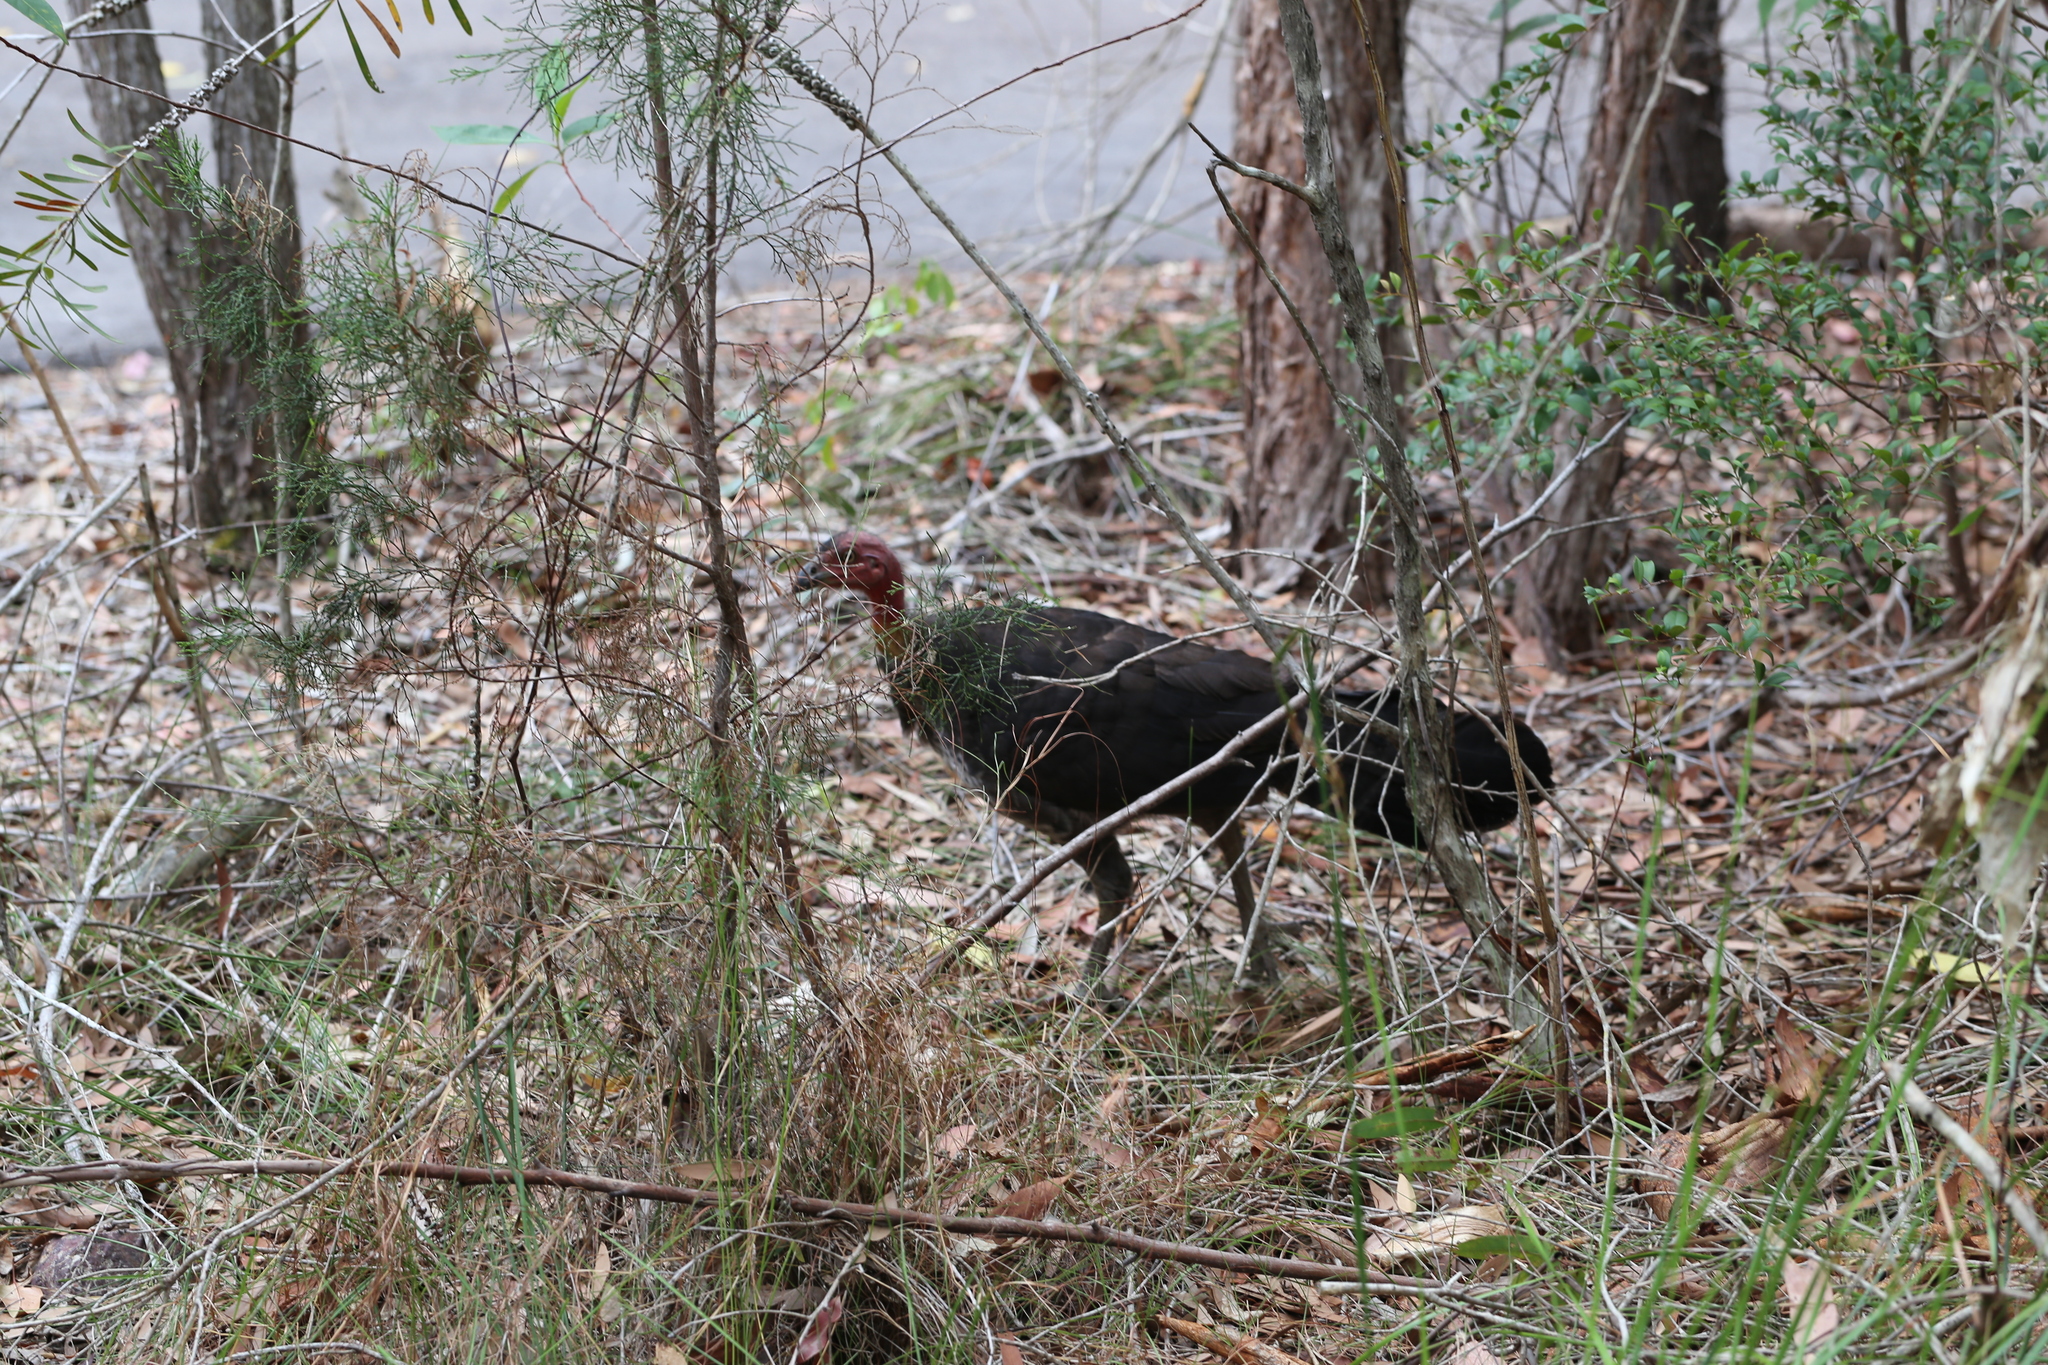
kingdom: Animalia
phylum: Chordata
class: Aves
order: Galliformes
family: Megapodiidae
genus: Alectura
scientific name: Alectura lathami
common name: Australian brushturkey
